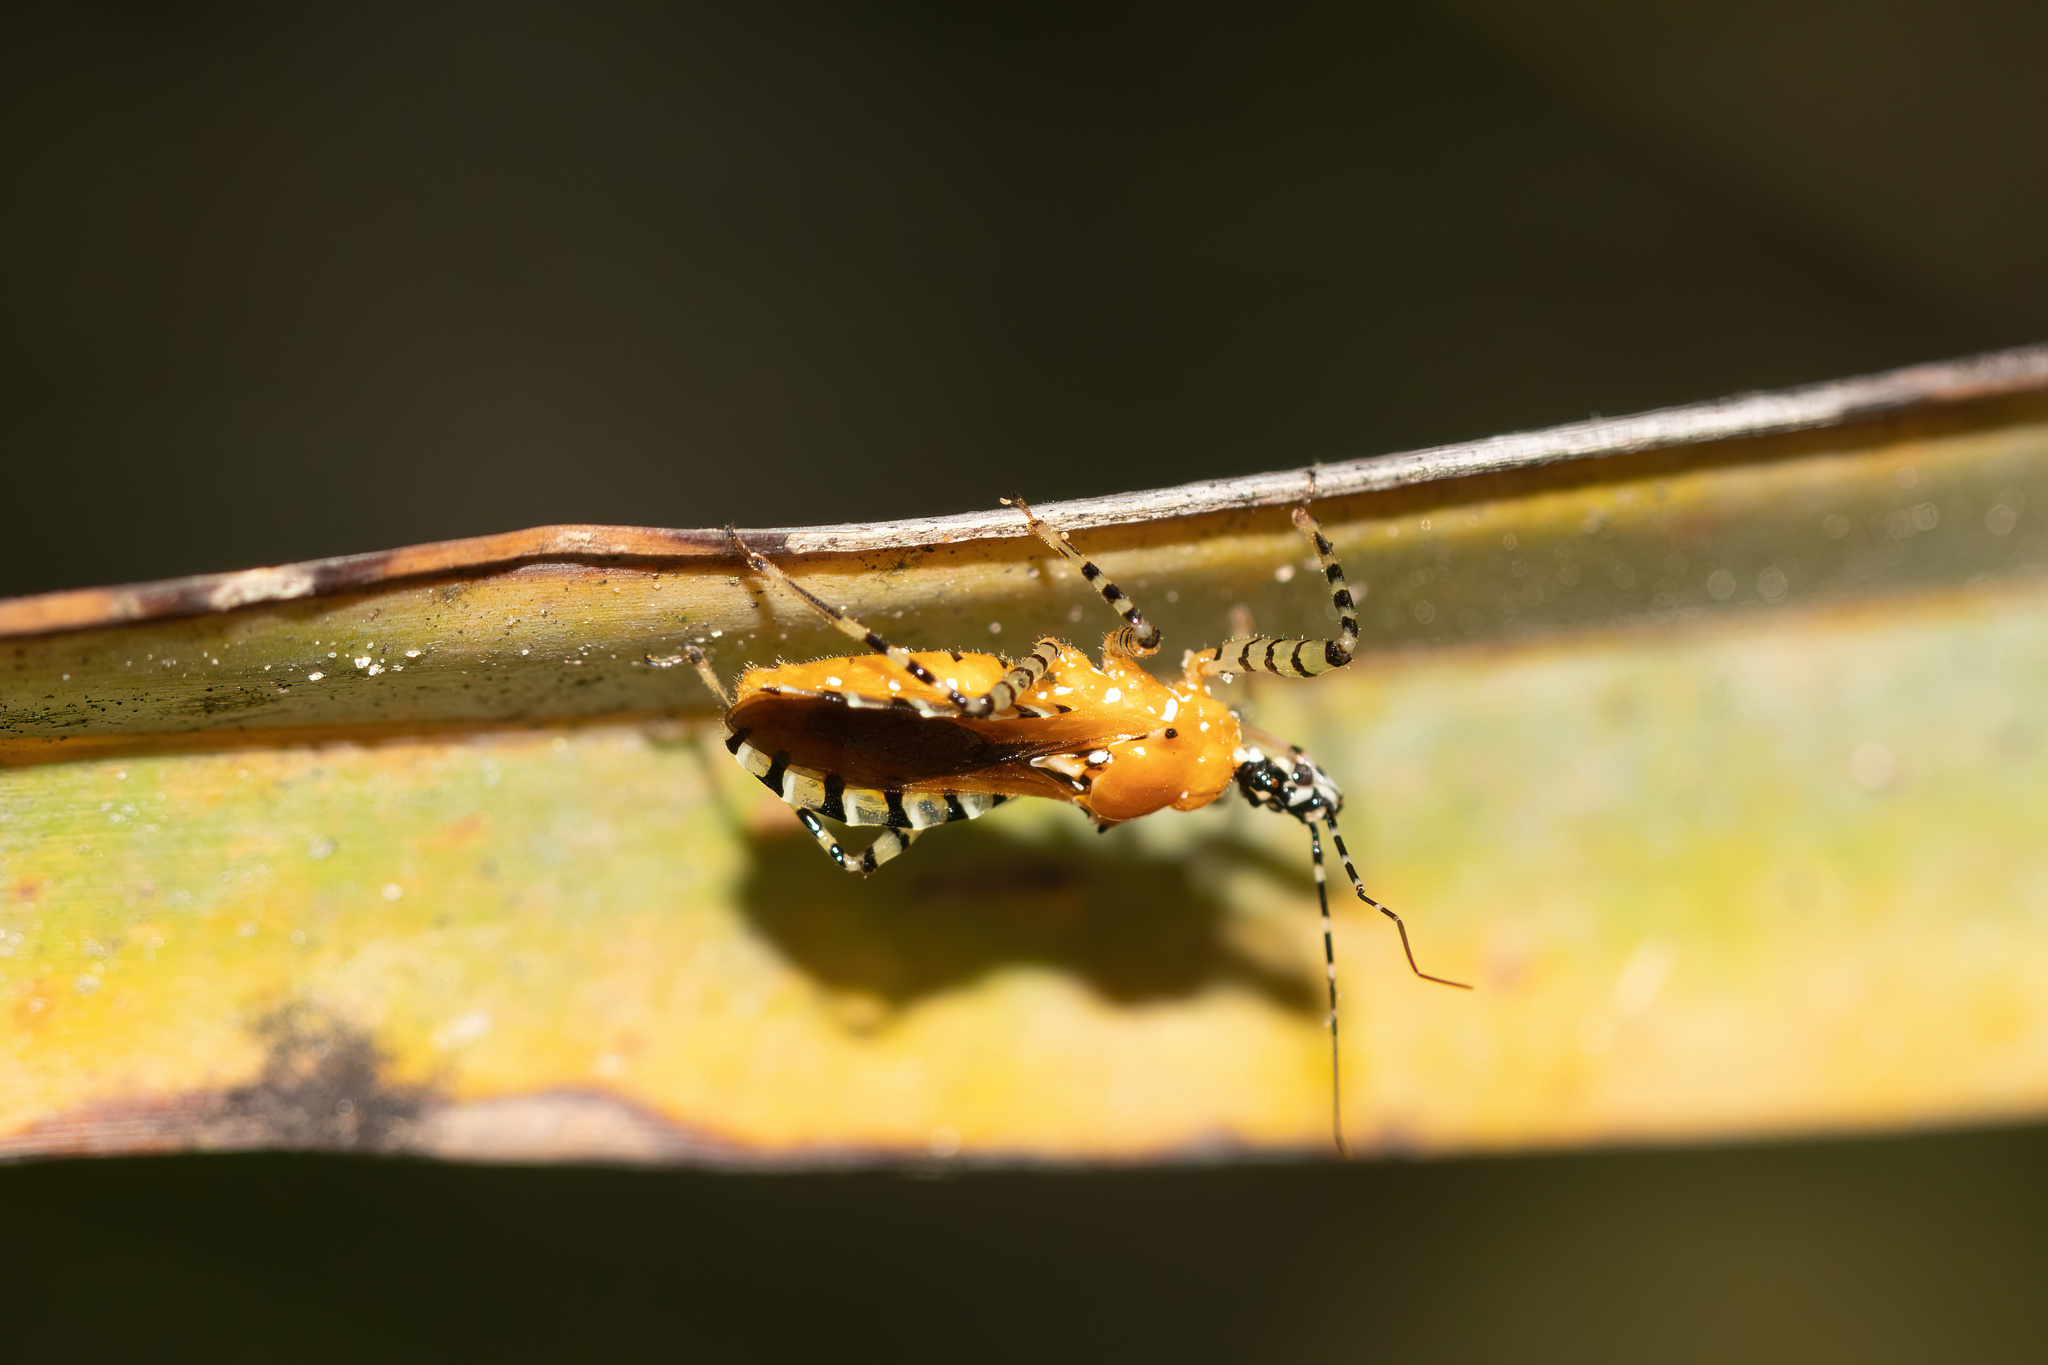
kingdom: Animalia
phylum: Arthropoda
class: Insecta
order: Hemiptera
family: Reduviidae
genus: Pselliopus
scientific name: Pselliopus cinctus
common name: Ringed assassin bug
